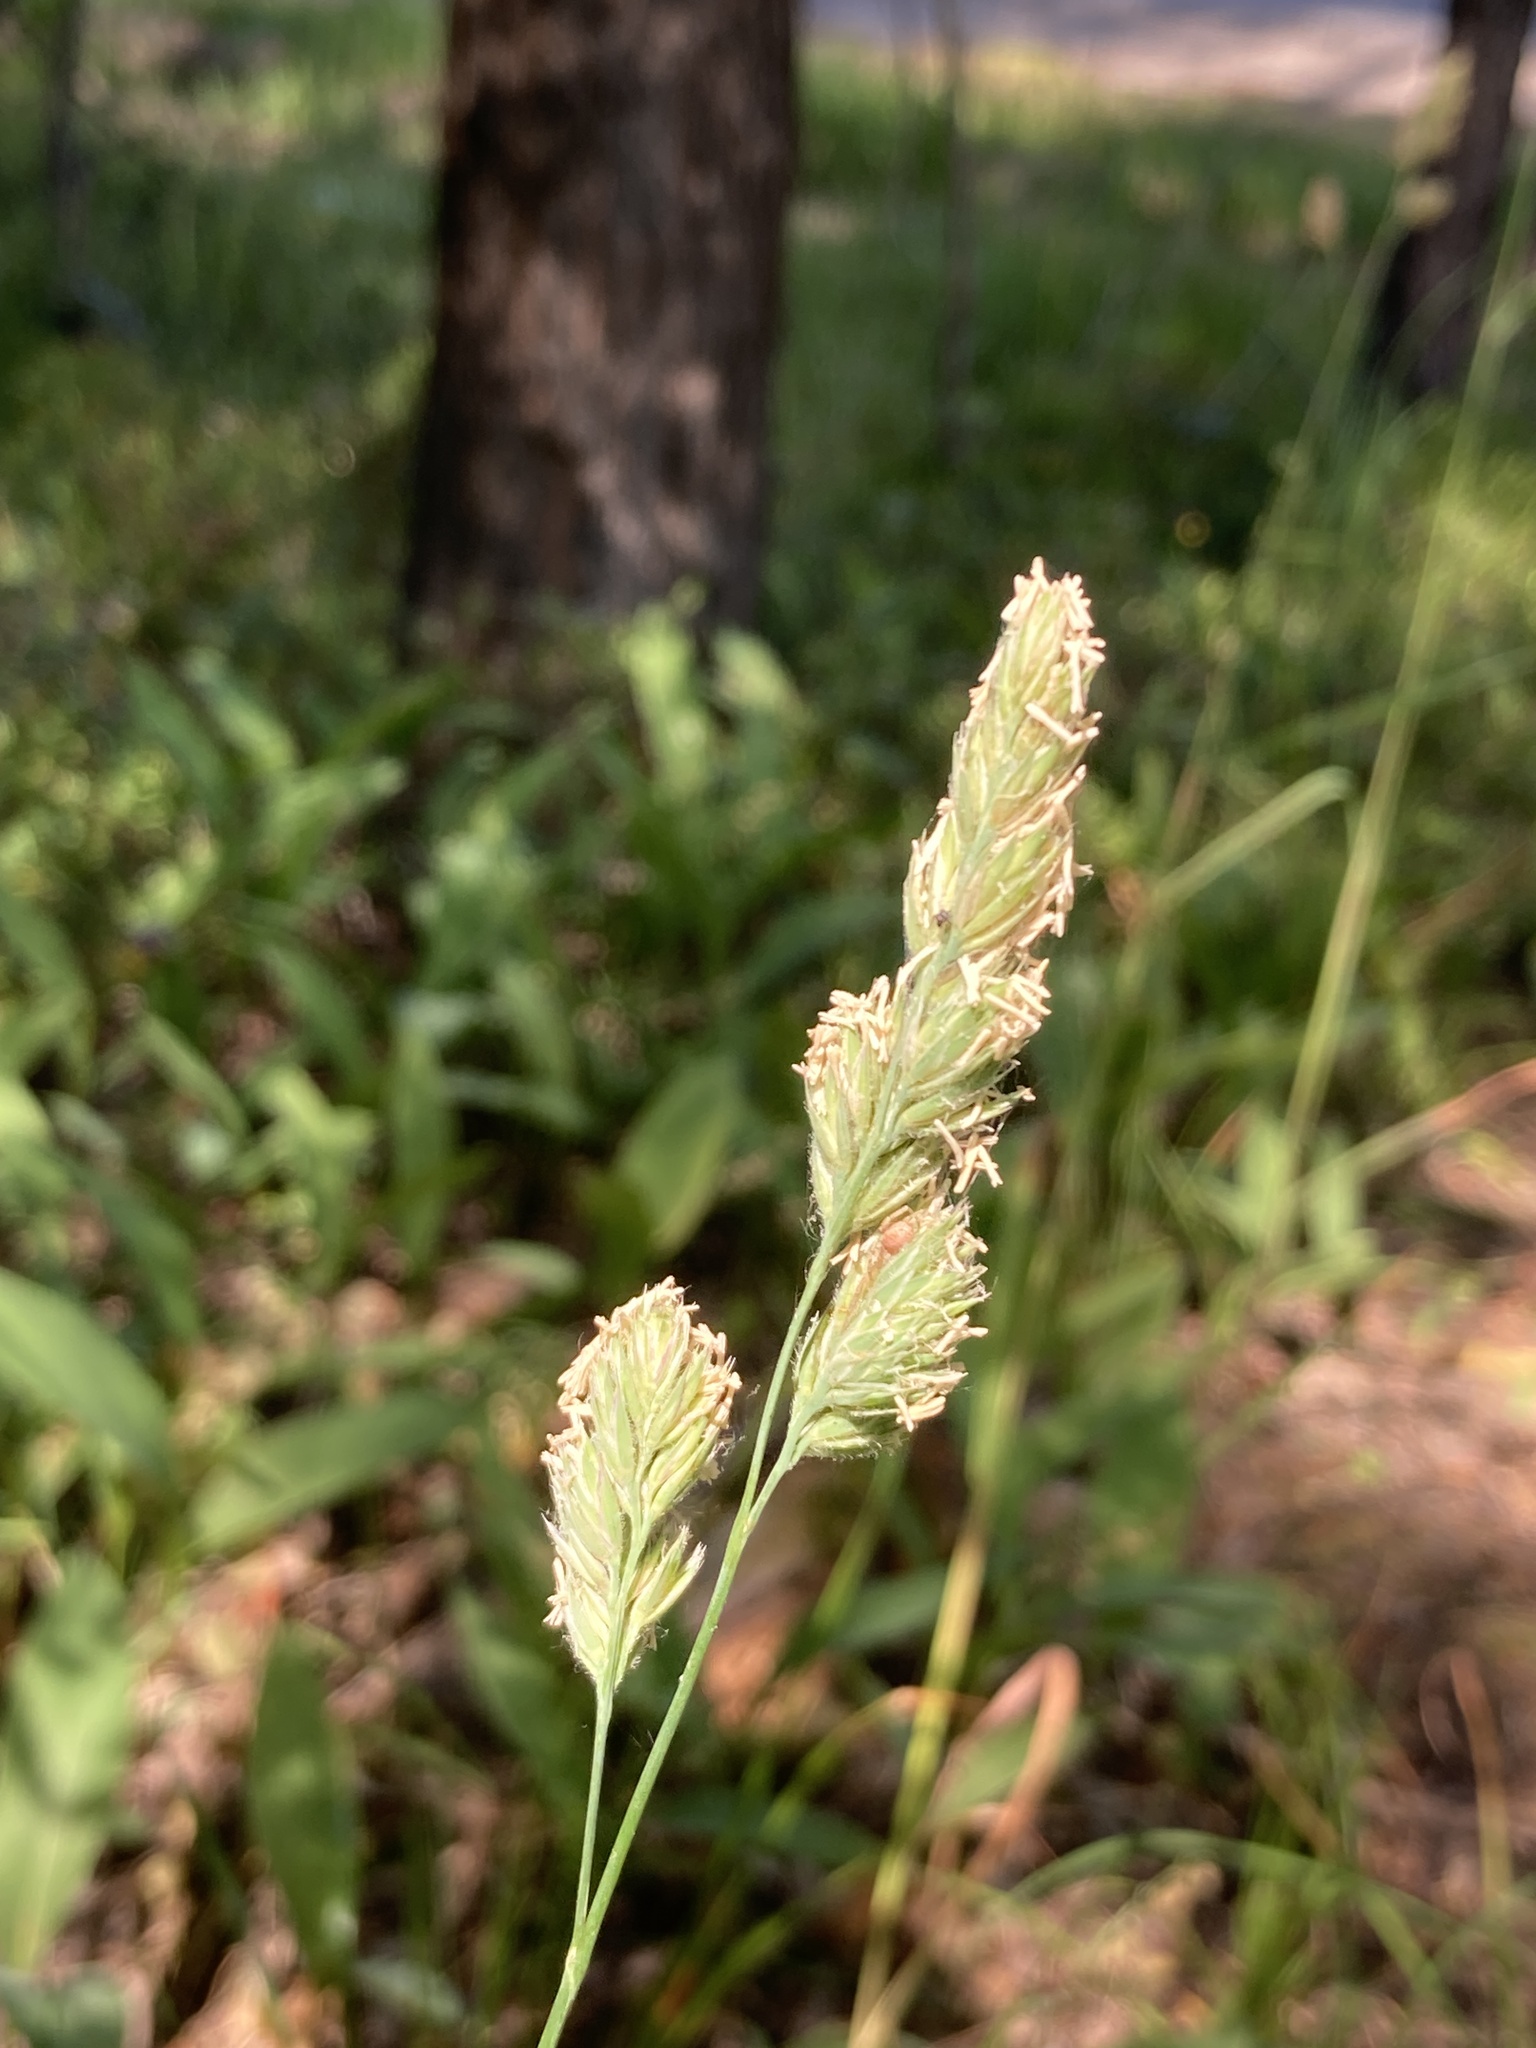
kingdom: Plantae
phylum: Tracheophyta
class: Liliopsida
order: Poales
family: Poaceae
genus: Dactylis
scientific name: Dactylis glomerata
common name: Orchardgrass
